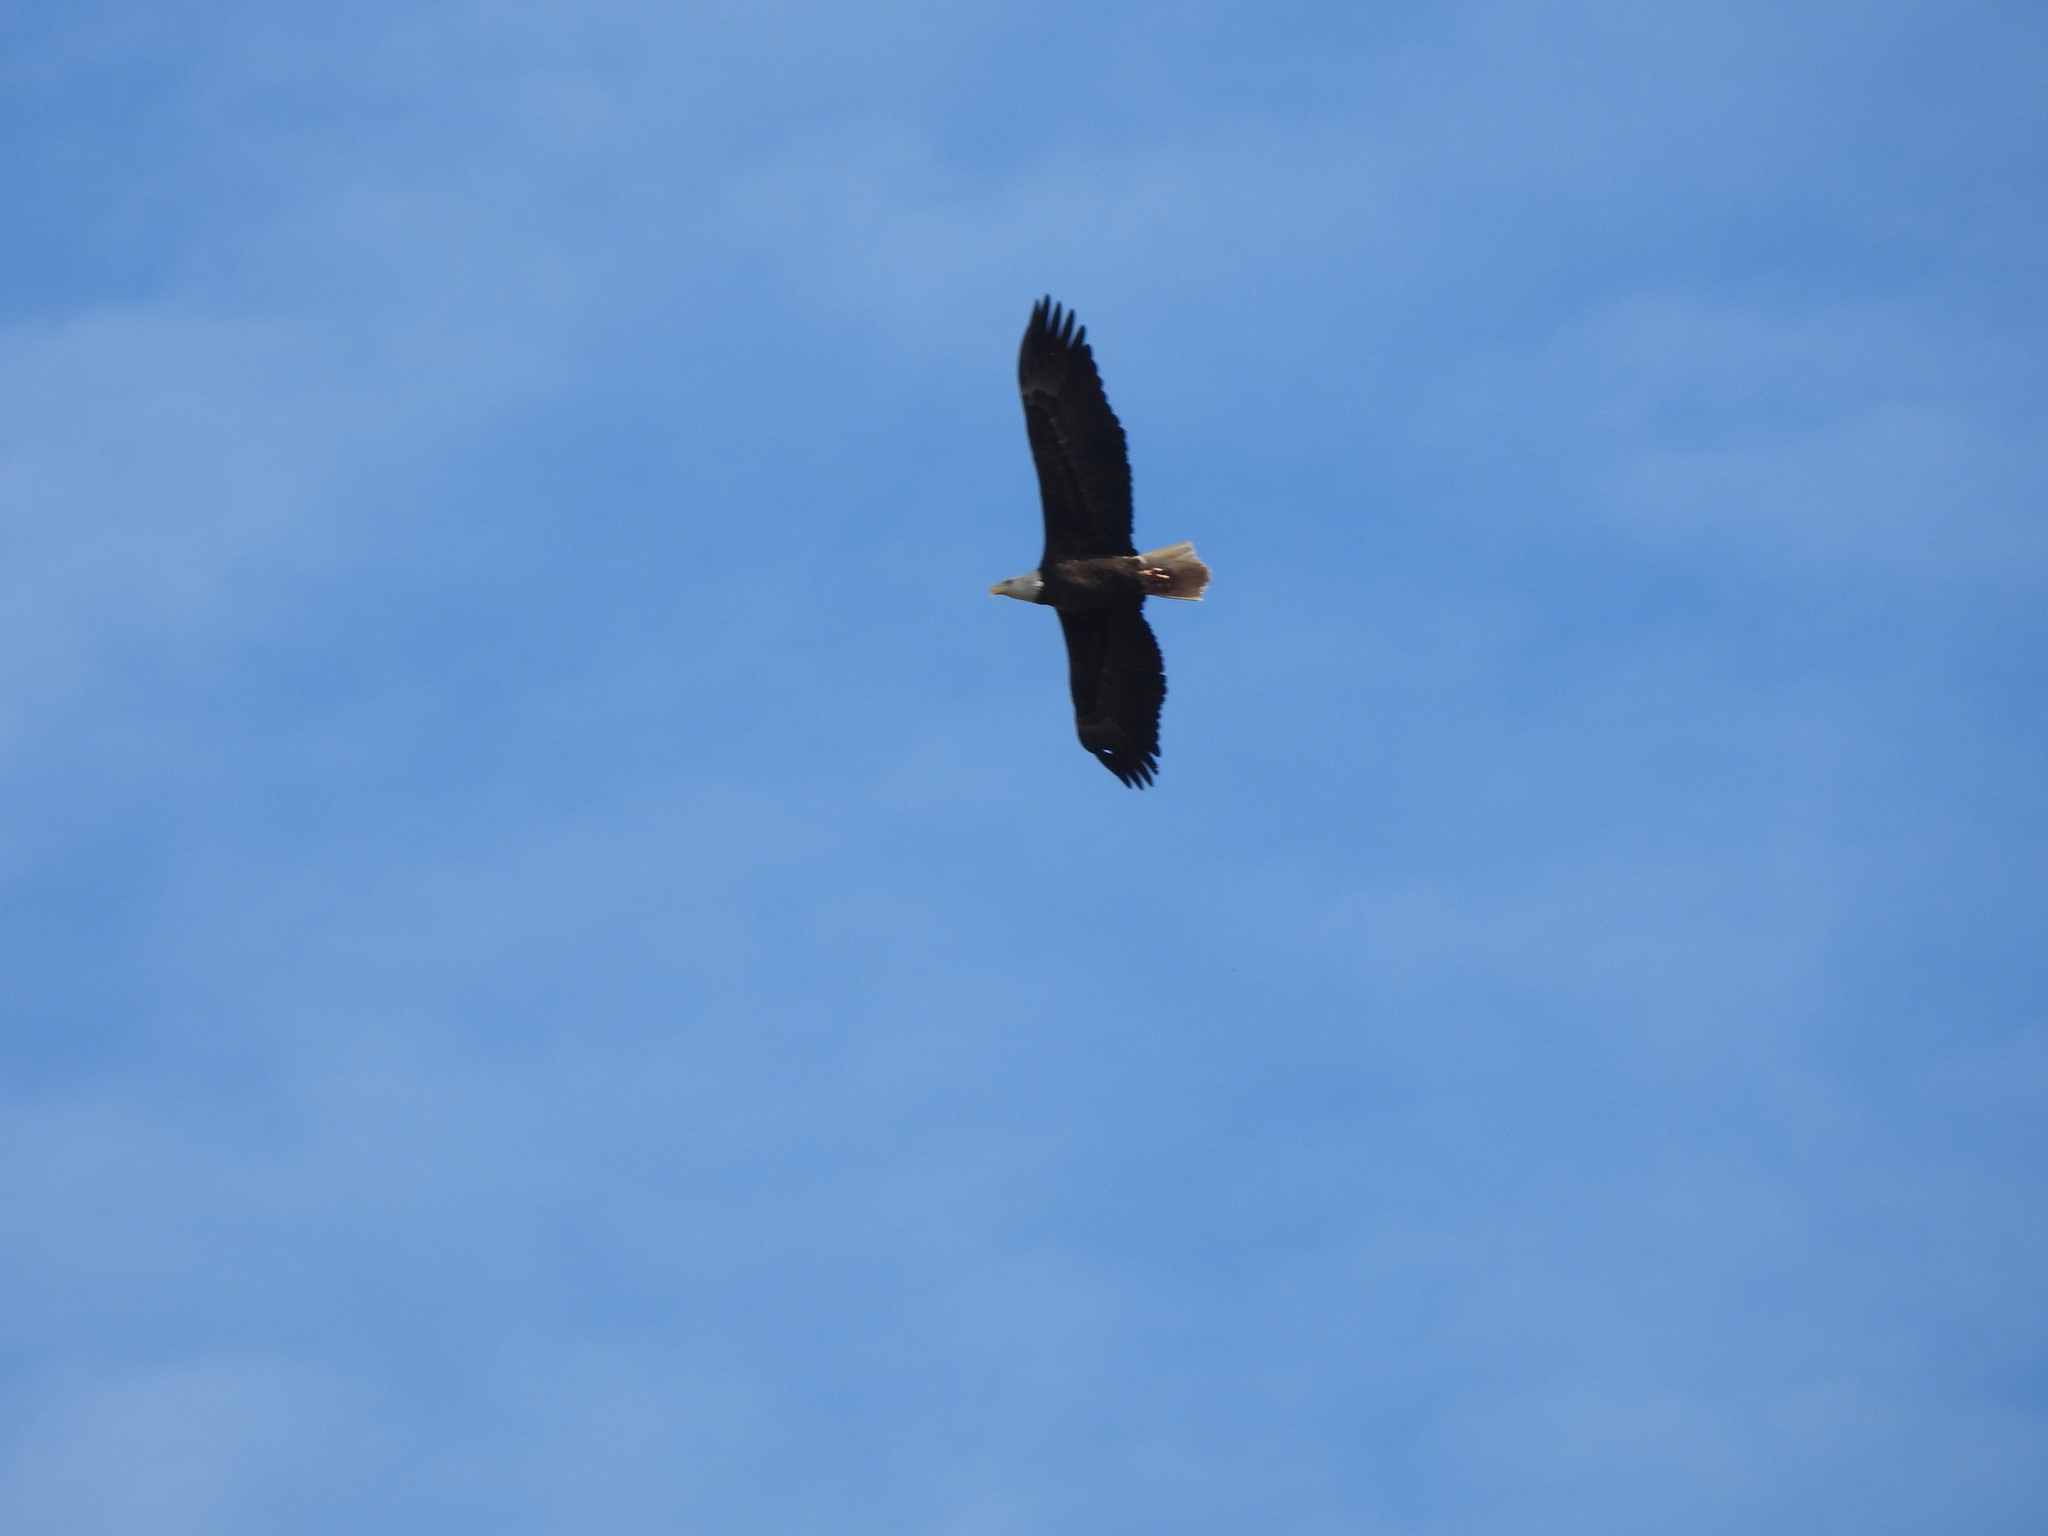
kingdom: Animalia
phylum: Chordata
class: Aves
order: Accipitriformes
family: Accipitridae
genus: Haliaeetus
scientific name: Haliaeetus leucocephalus
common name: Bald eagle
